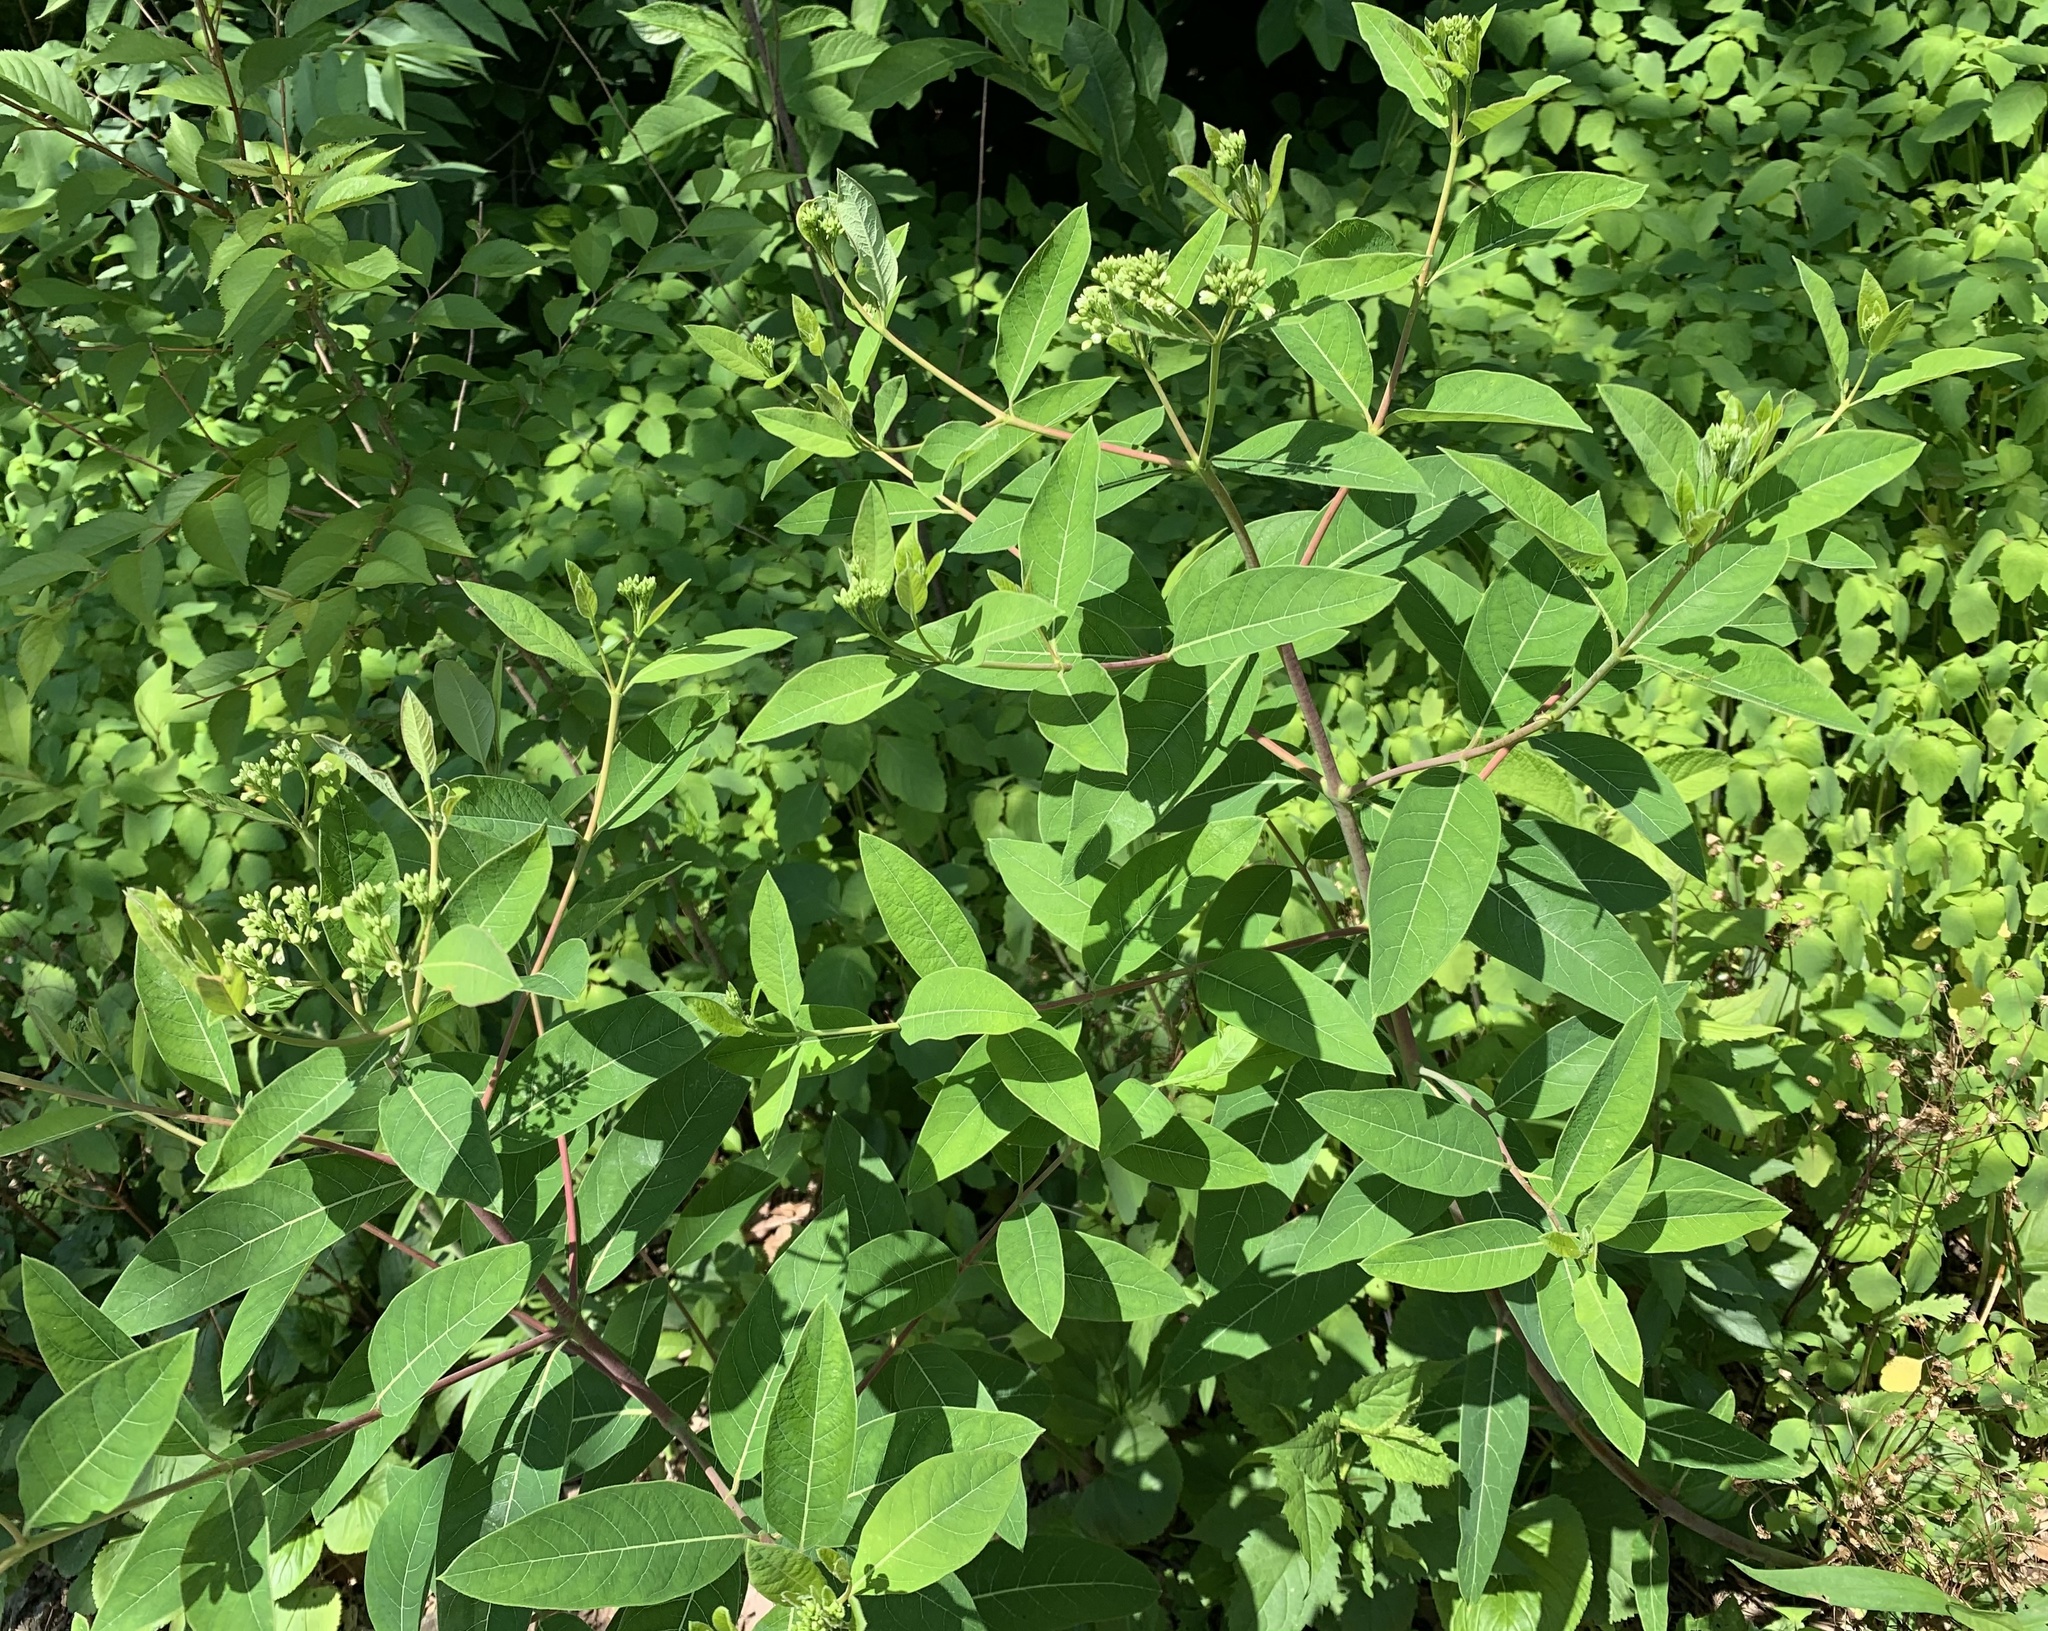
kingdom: Plantae
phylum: Tracheophyta
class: Magnoliopsida
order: Gentianales
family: Apocynaceae
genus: Apocynum
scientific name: Apocynum cannabinum
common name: Hemp dogbane
